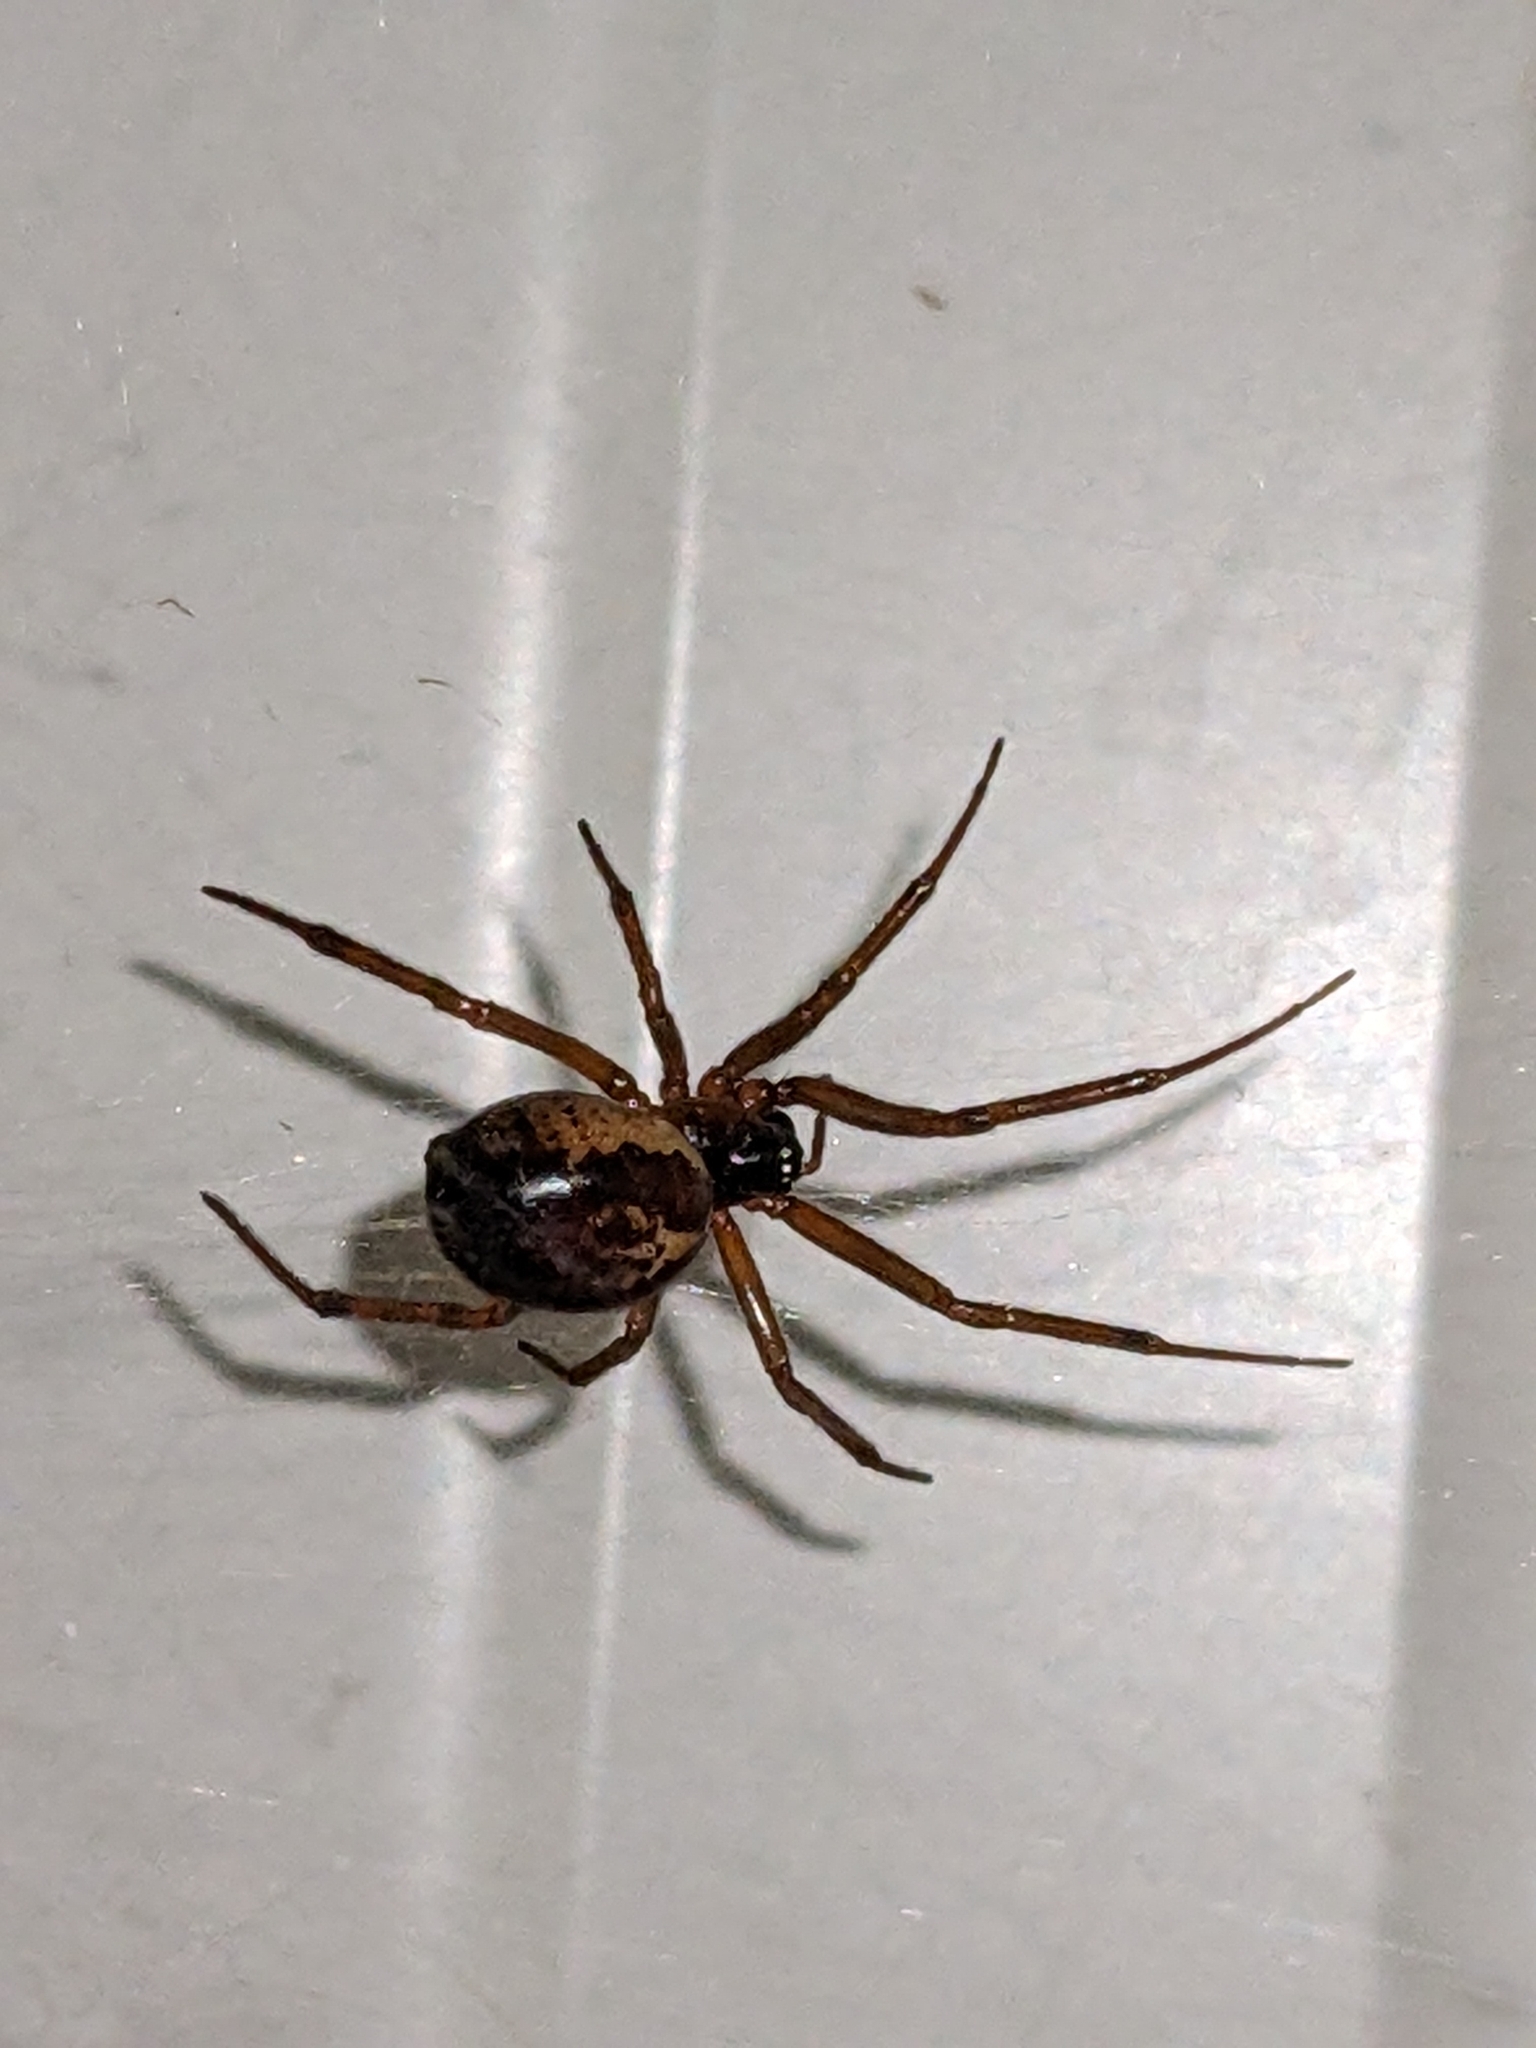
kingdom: Animalia
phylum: Arthropoda
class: Arachnida
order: Araneae
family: Theridiidae
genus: Steatoda
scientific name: Steatoda nobilis
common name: Cobweb weaver
